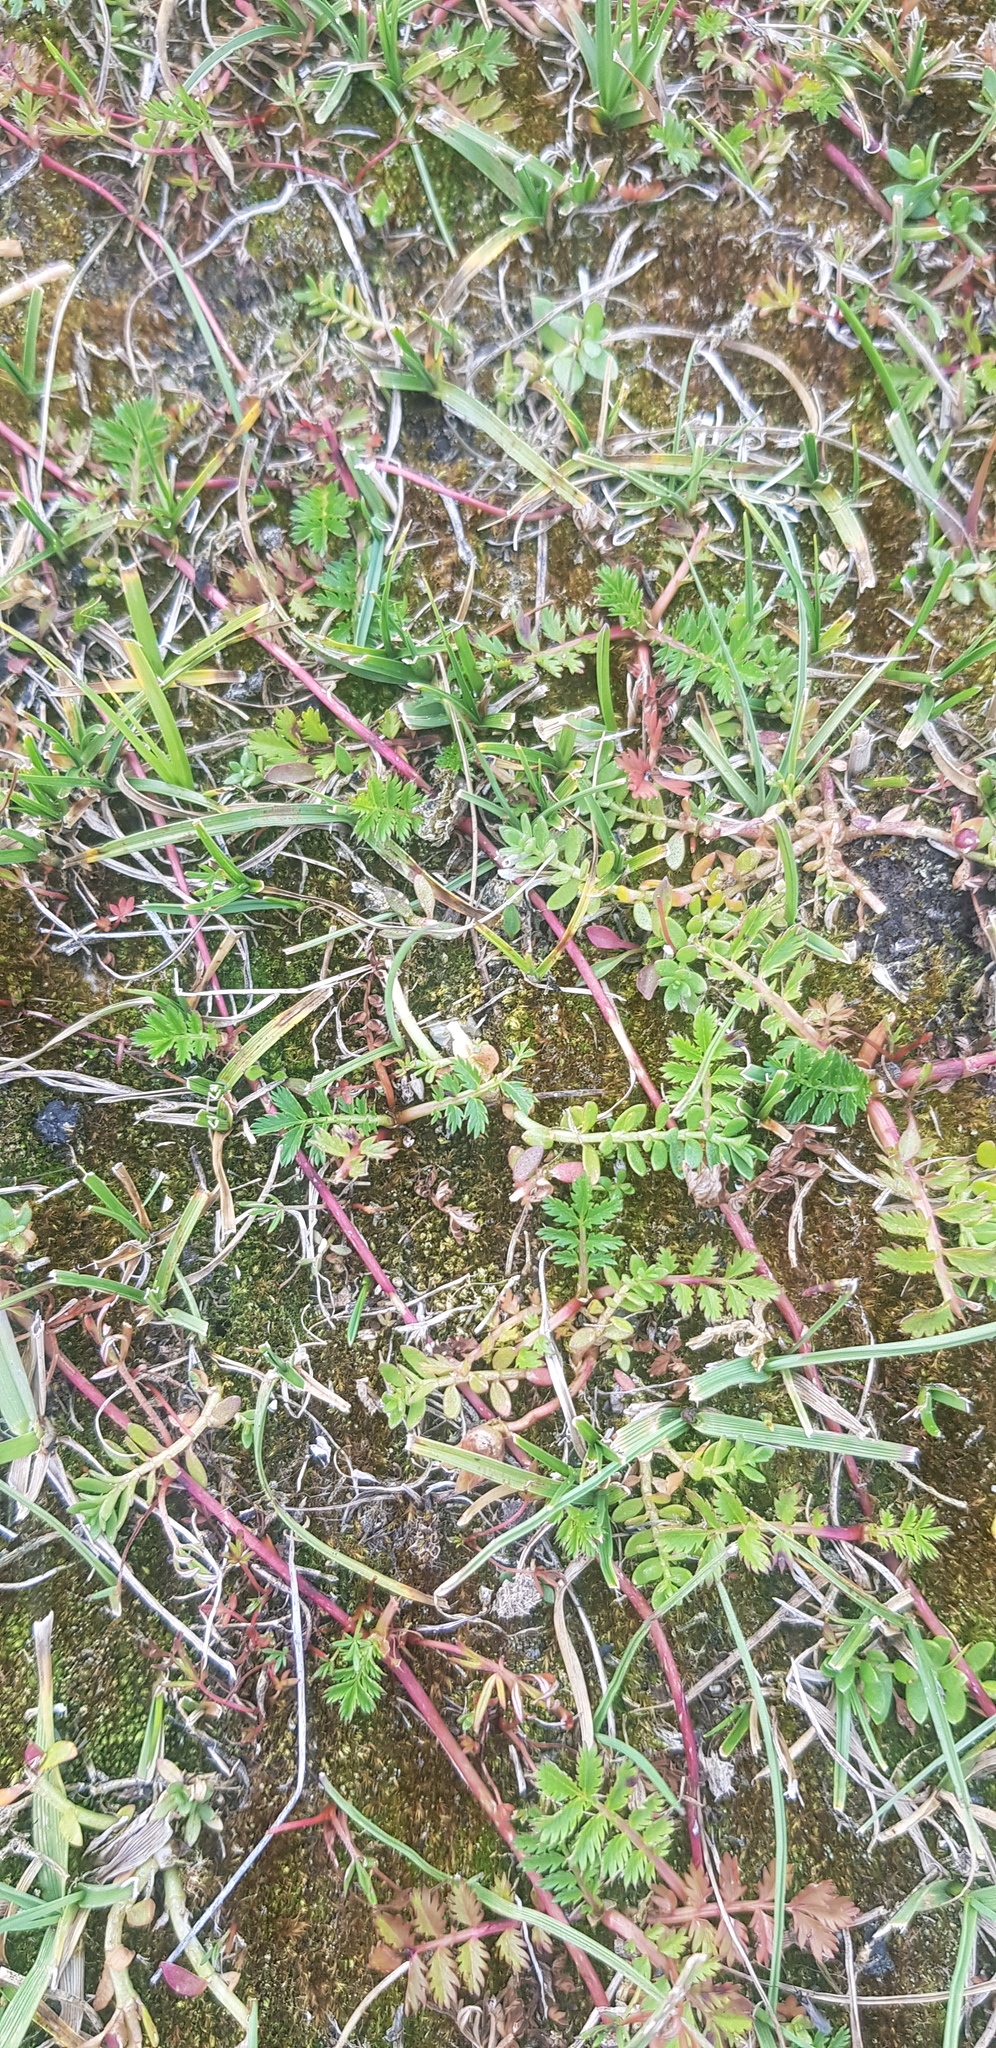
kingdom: Plantae
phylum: Tracheophyta
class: Magnoliopsida
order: Rosales
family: Rosaceae
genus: Argentina
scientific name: Argentina anserina
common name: Common silverweed
